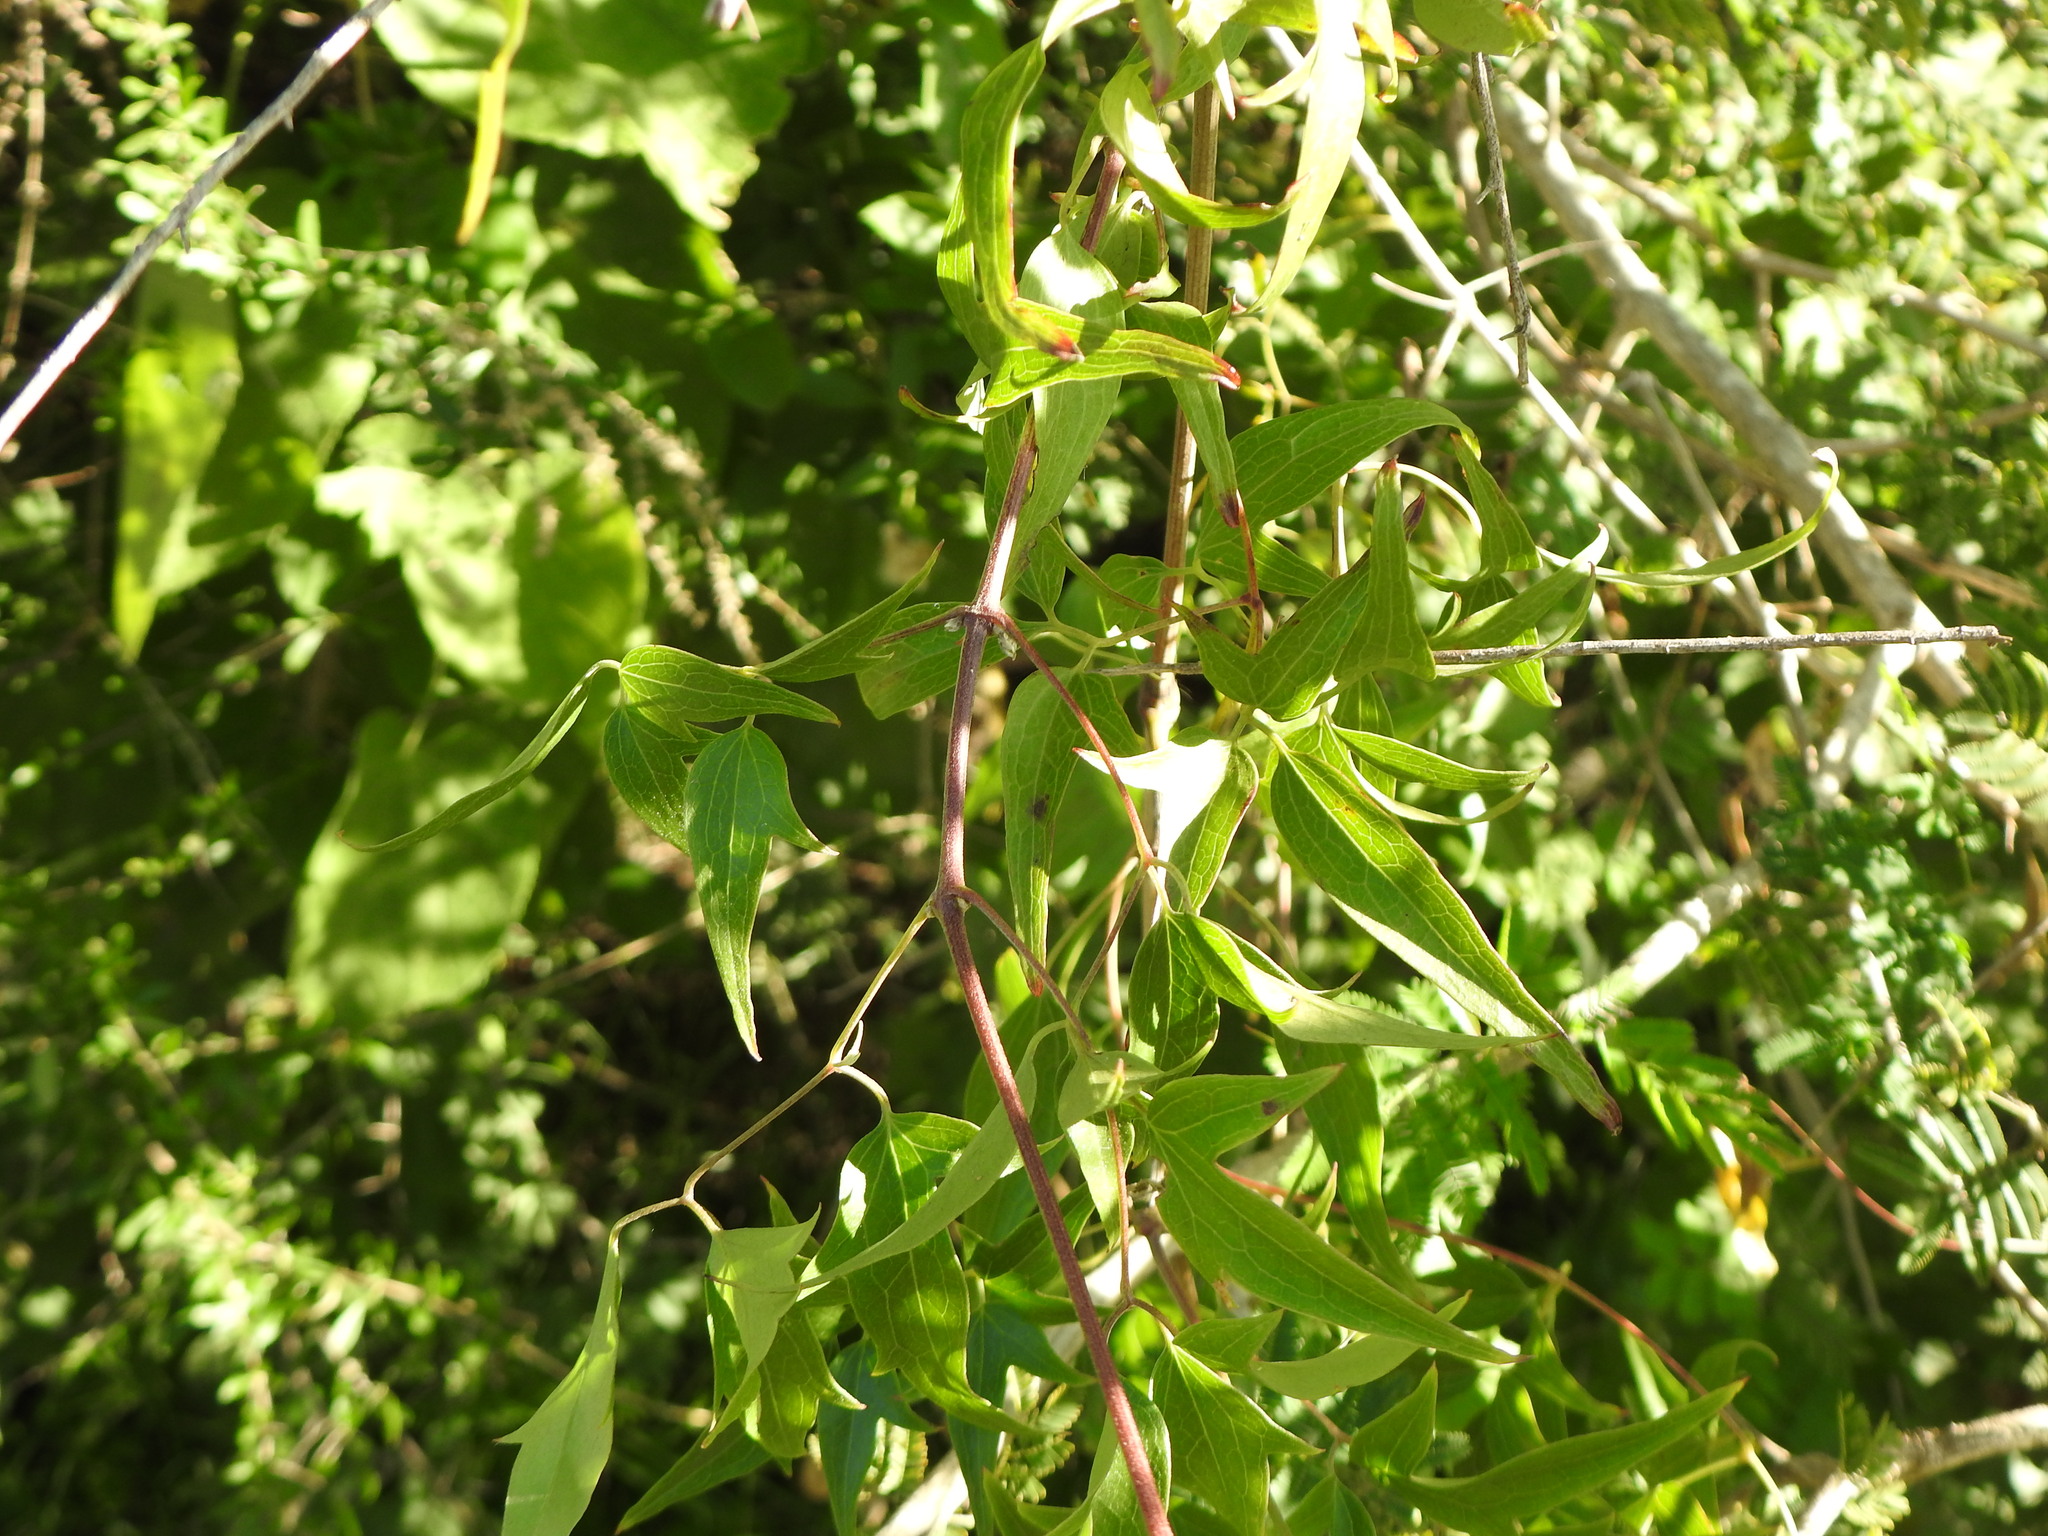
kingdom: Plantae
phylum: Tracheophyta
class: Magnoliopsida
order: Ranunculales
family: Ranunculaceae
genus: Clematis
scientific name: Clematis montevidensis
